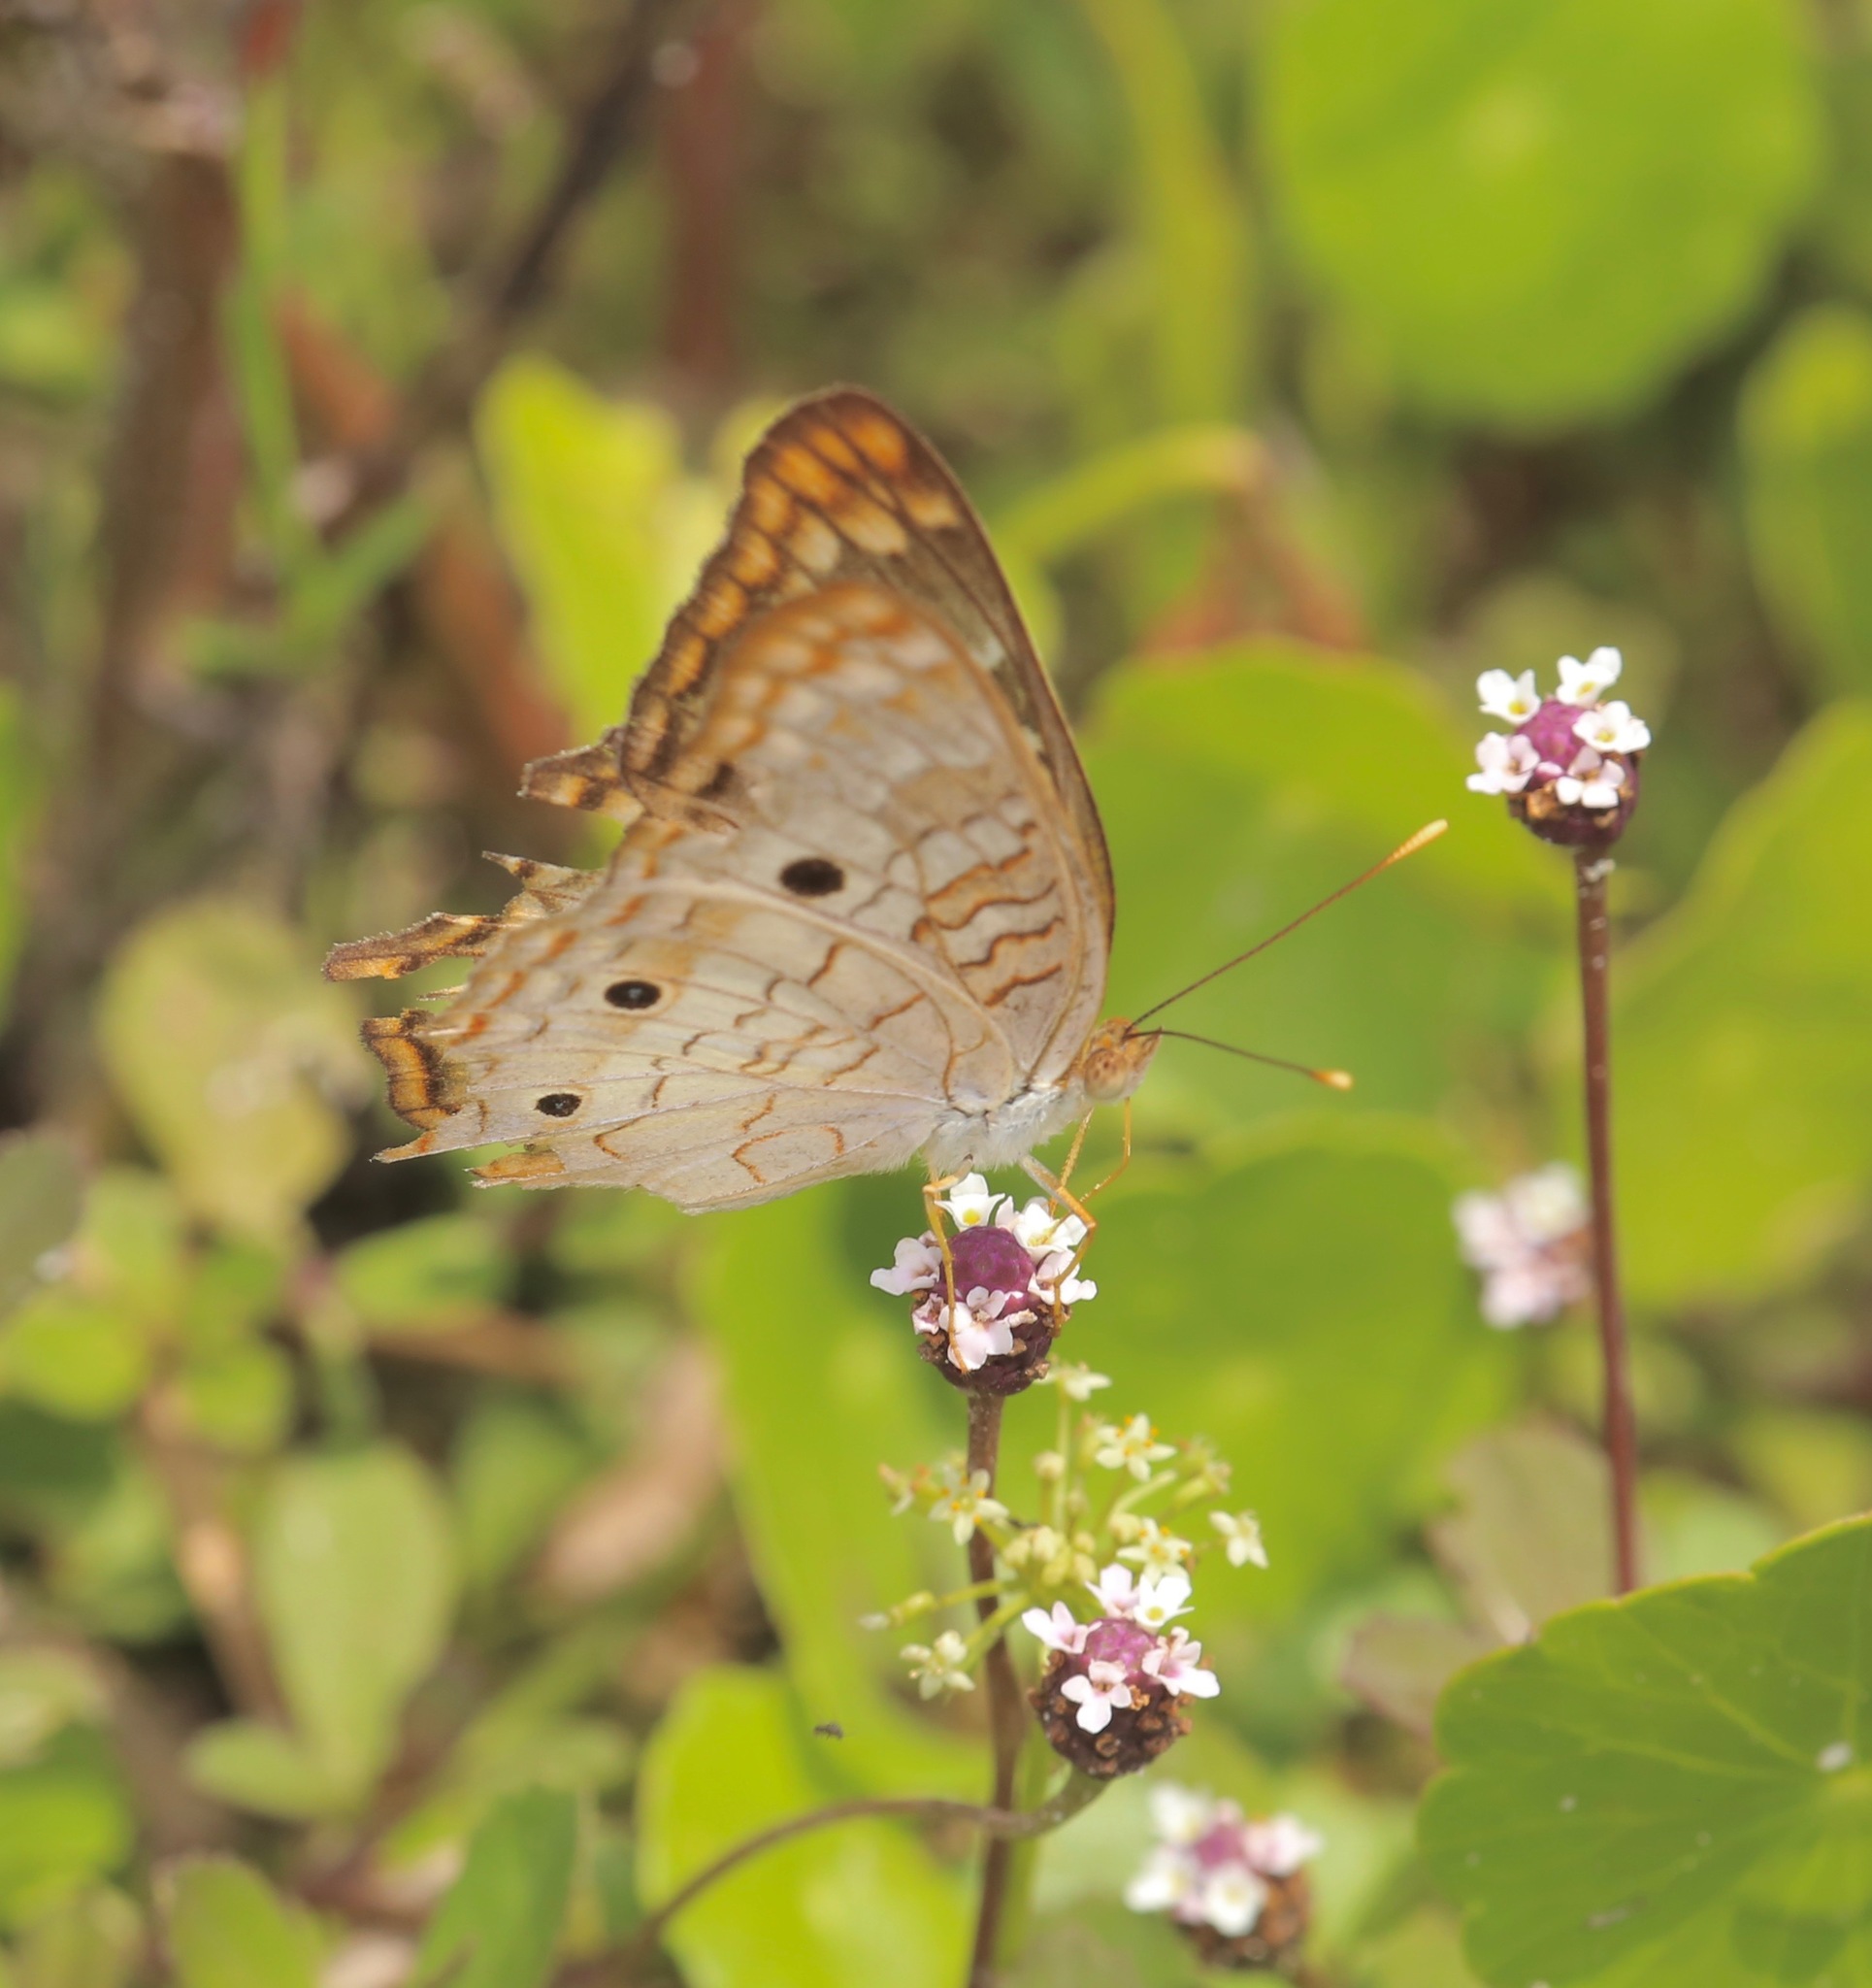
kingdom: Animalia
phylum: Arthropoda
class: Insecta
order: Lepidoptera
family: Nymphalidae
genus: Anartia
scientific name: Anartia jatrophae
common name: White peacock
